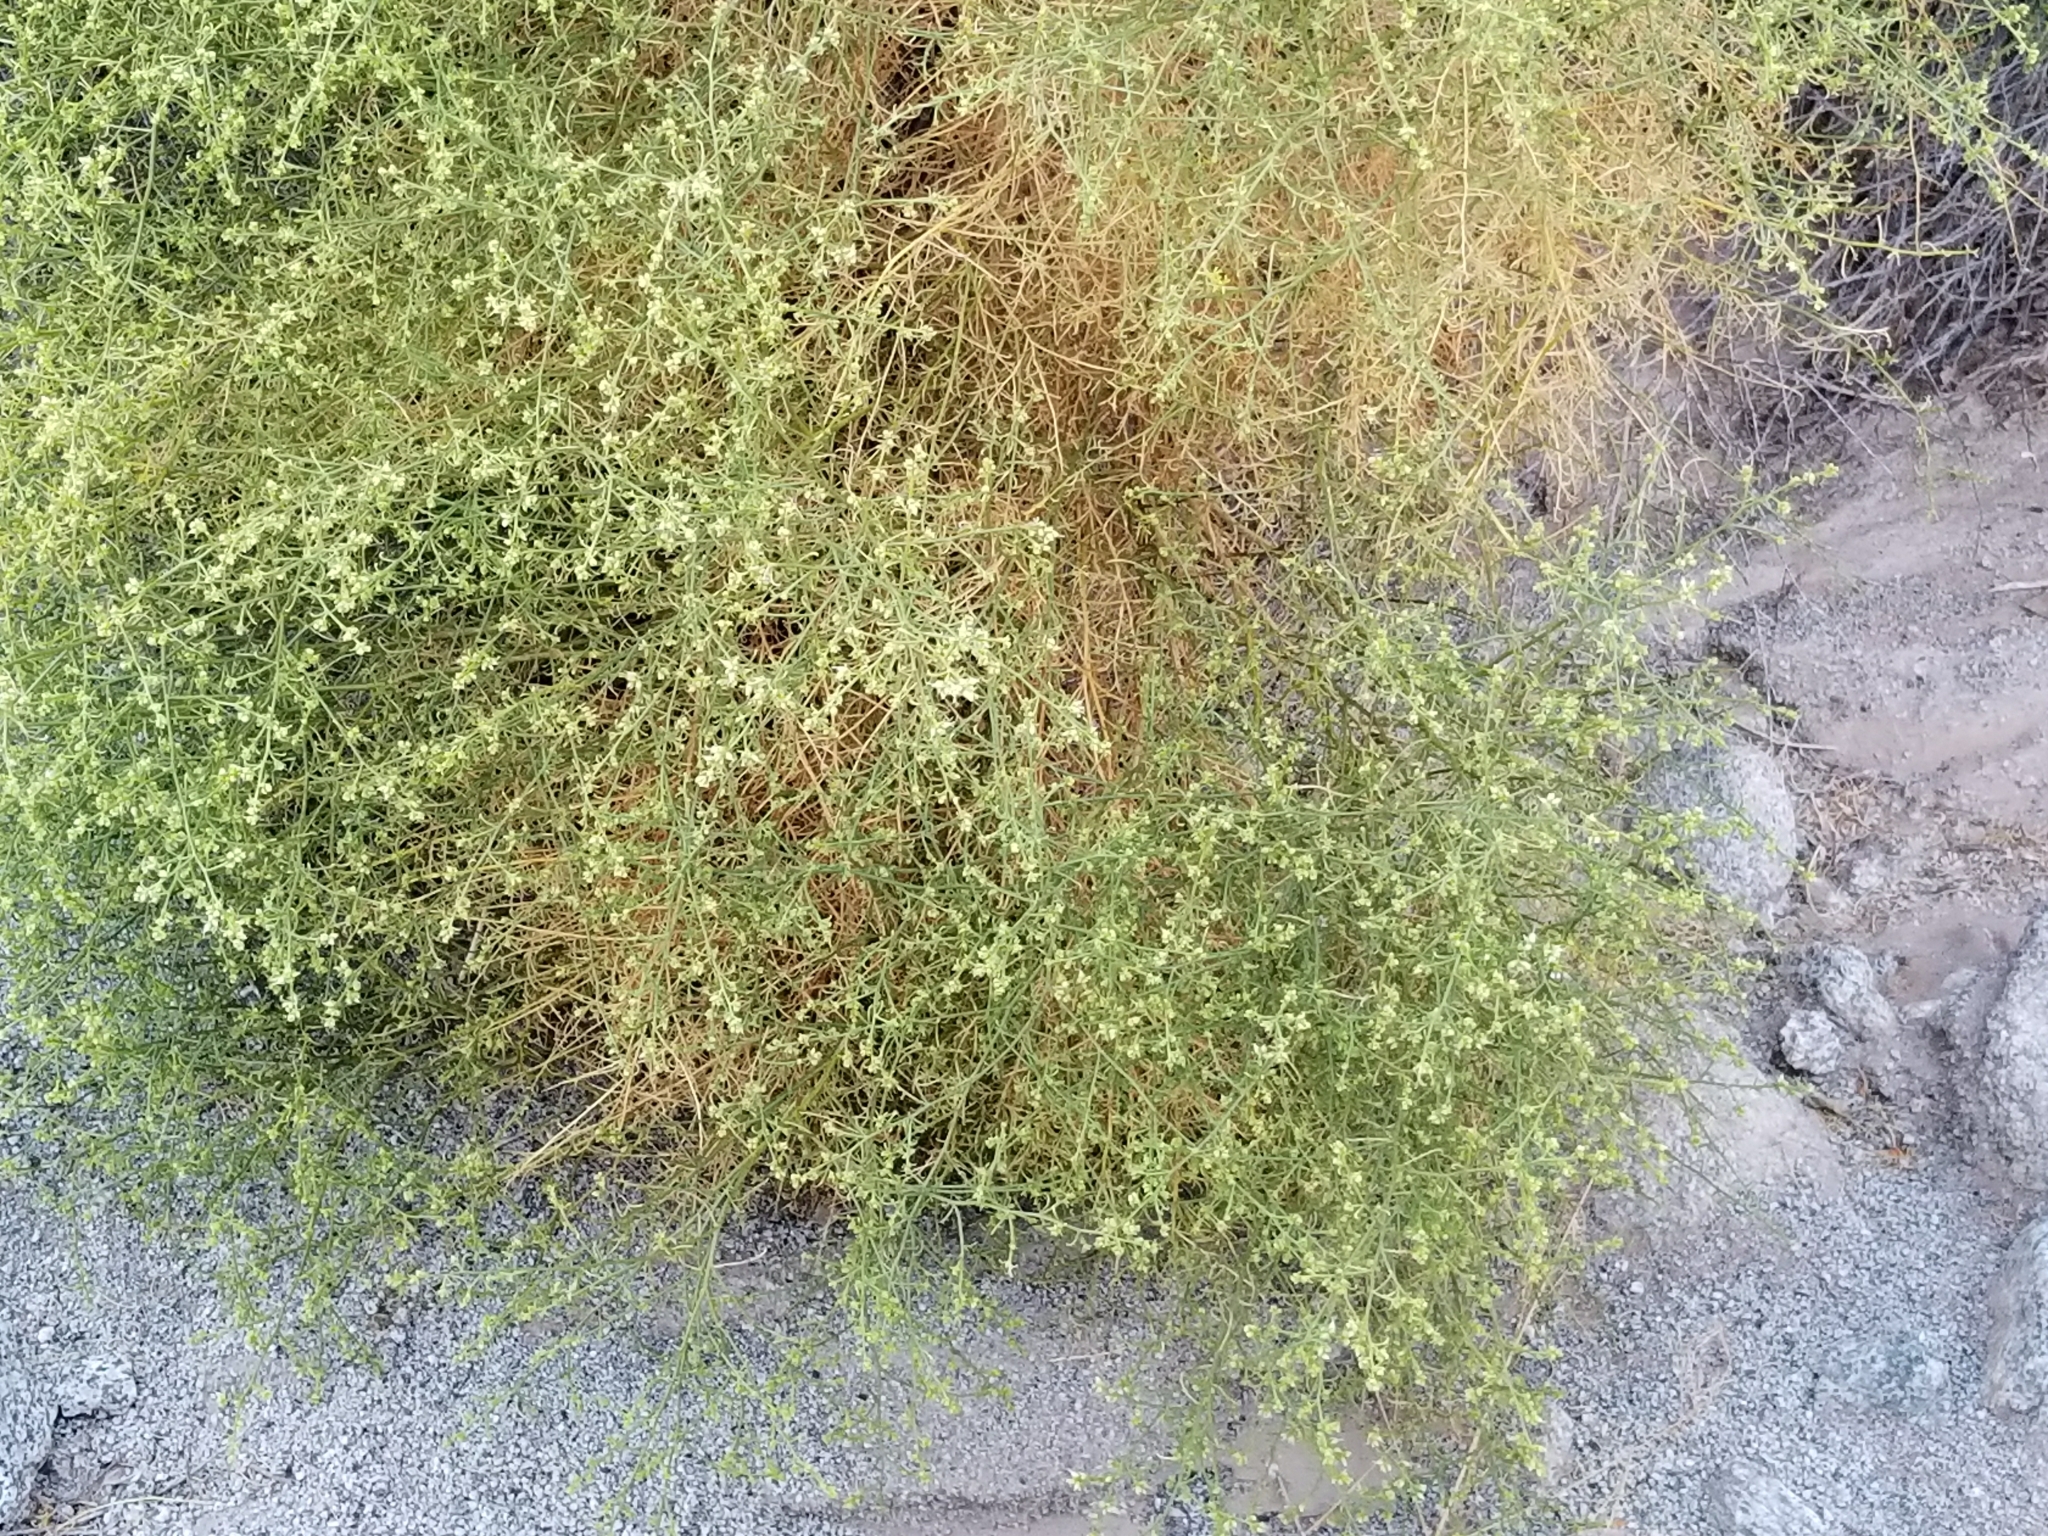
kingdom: Plantae
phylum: Tracheophyta
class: Magnoliopsida
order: Asterales
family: Asteraceae
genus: Ambrosia
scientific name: Ambrosia salsola
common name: Burrobrush
